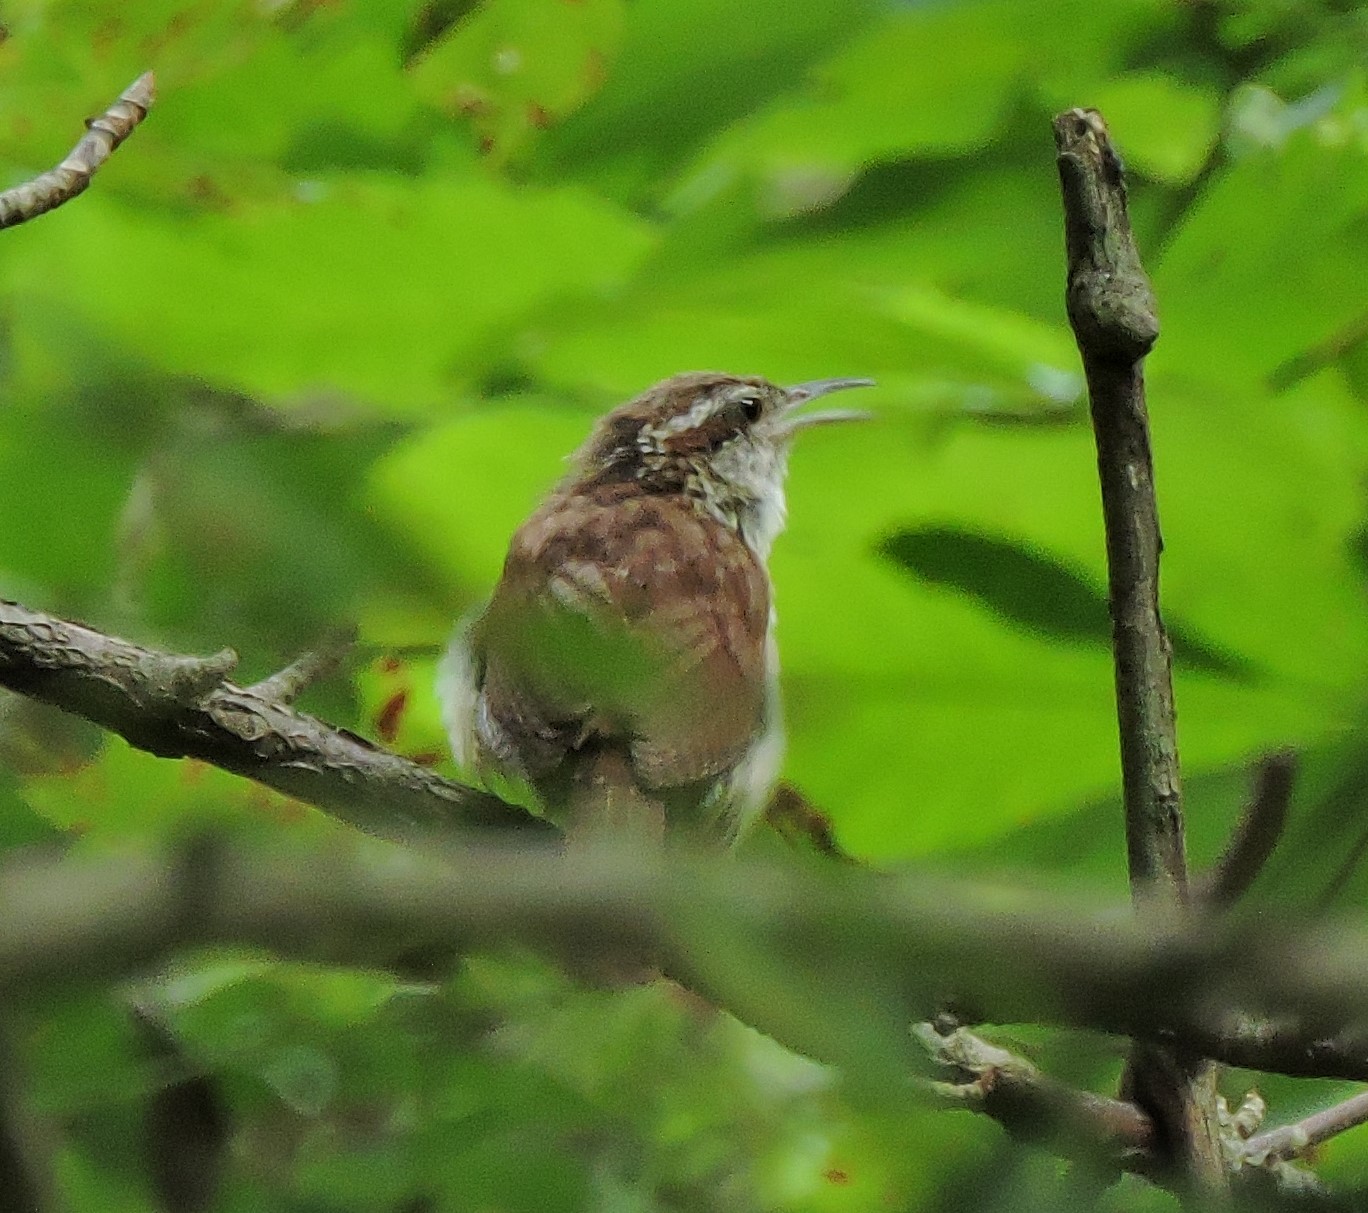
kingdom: Animalia
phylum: Chordata
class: Aves
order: Passeriformes
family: Troglodytidae
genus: Thryothorus
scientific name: Thryothorus ludovicianus
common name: Carolina wren
